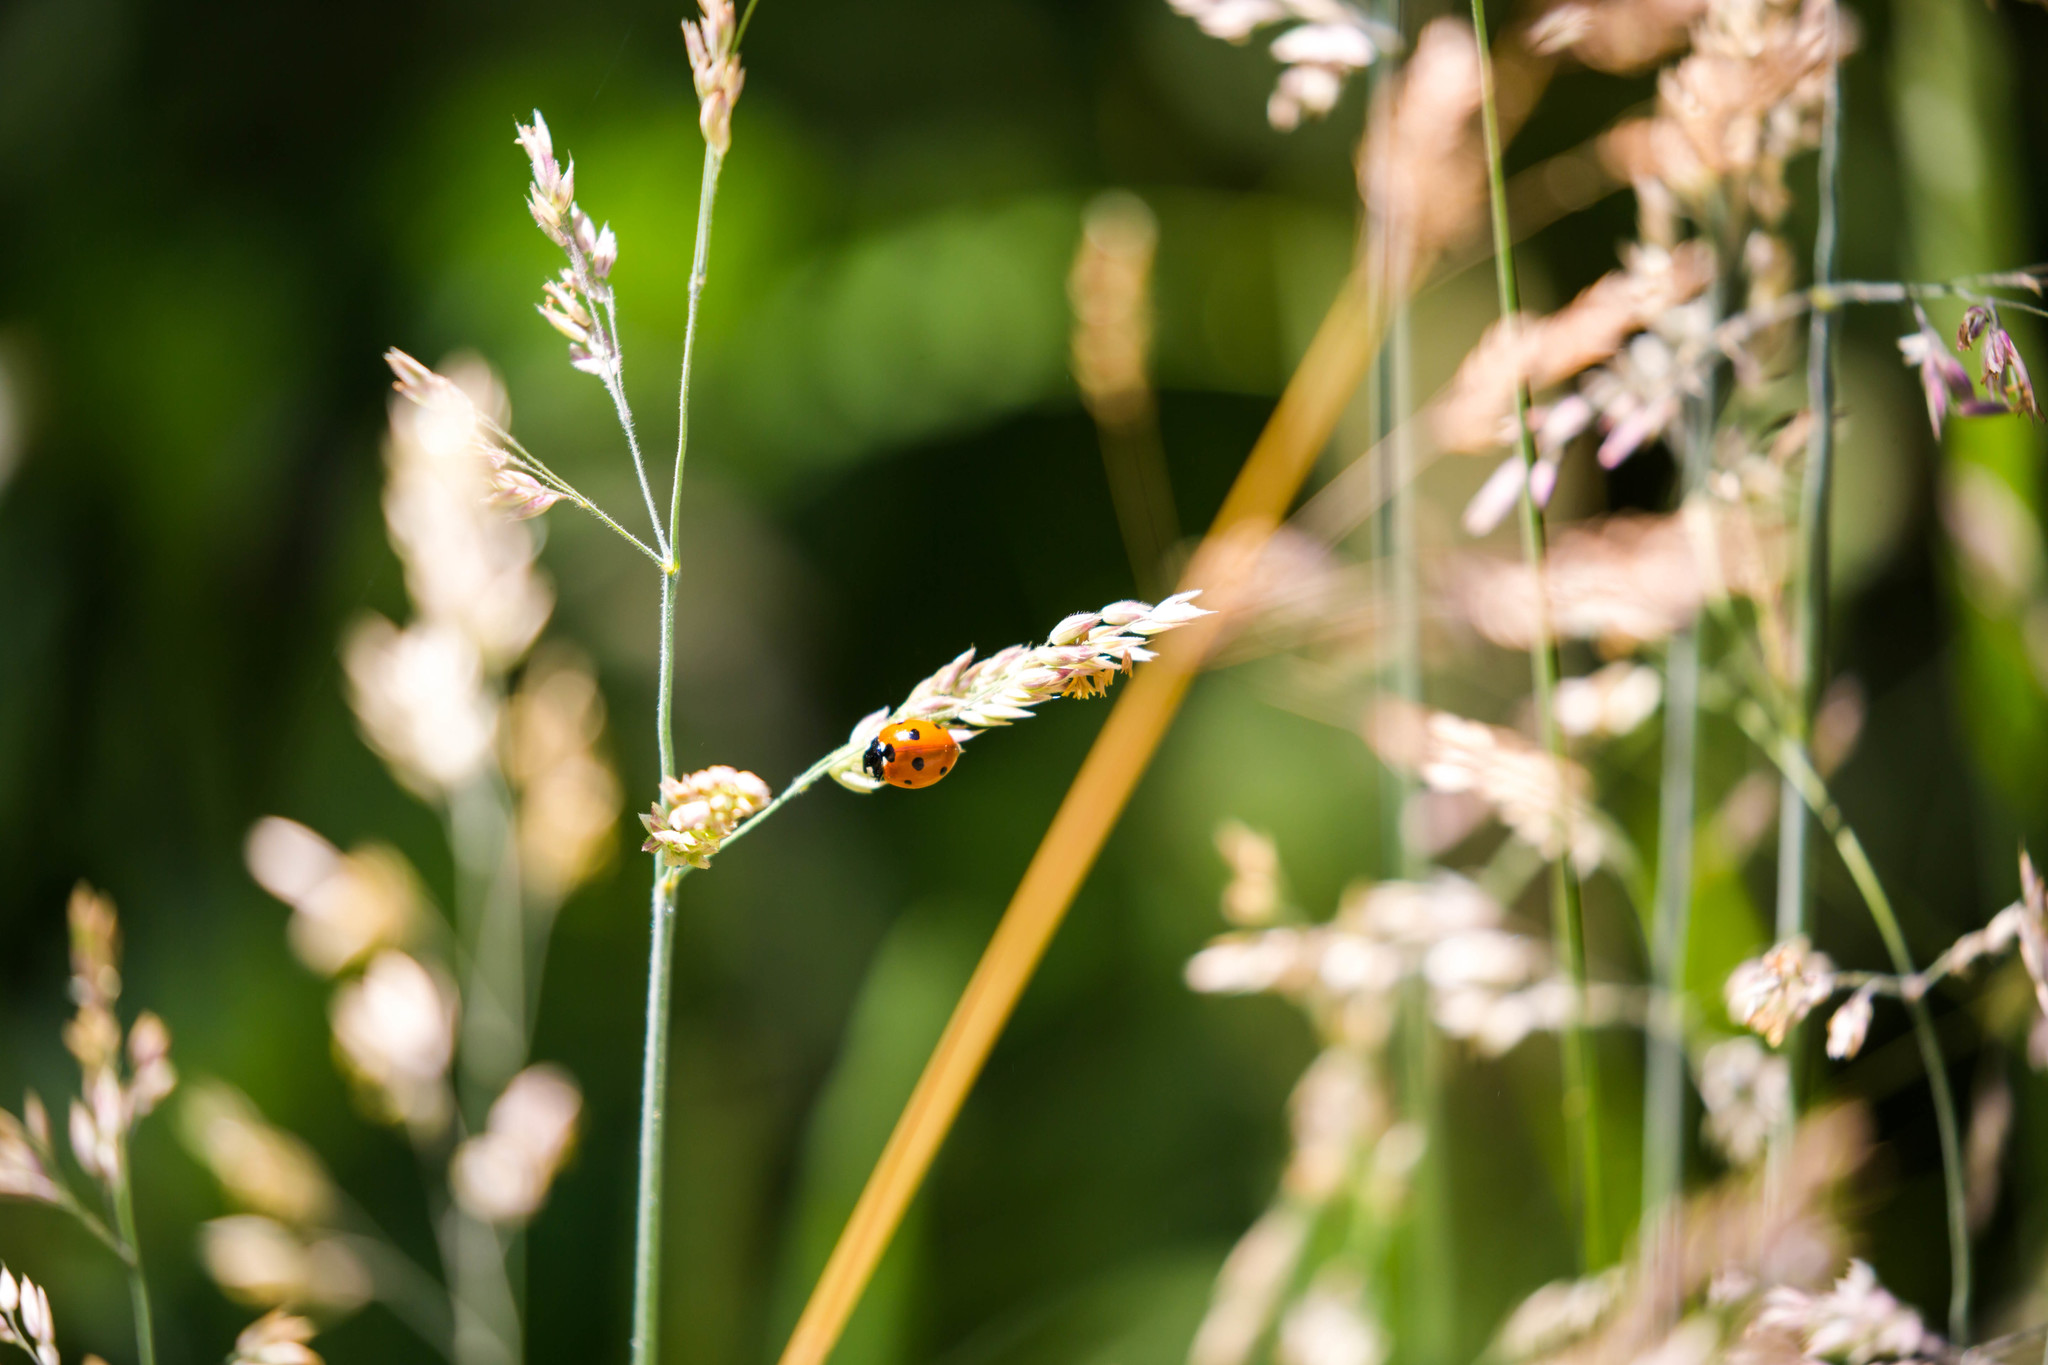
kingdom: Animalia
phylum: Arthropoda
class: Insecta
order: Coleoptera
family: Coccinellidae
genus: Coccinella
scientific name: Coccinella septempunctata
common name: Sevenspotted lady beetle
